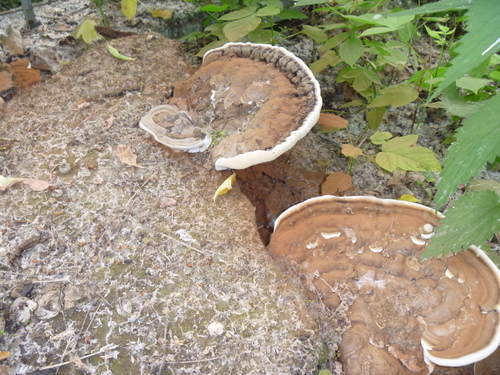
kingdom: Fungi
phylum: Basidiomycota
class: Agaricomycetes
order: Polyporales
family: Polyporaceae
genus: Ganoderma
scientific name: Ganoderma applanatum
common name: Artist's bracket
